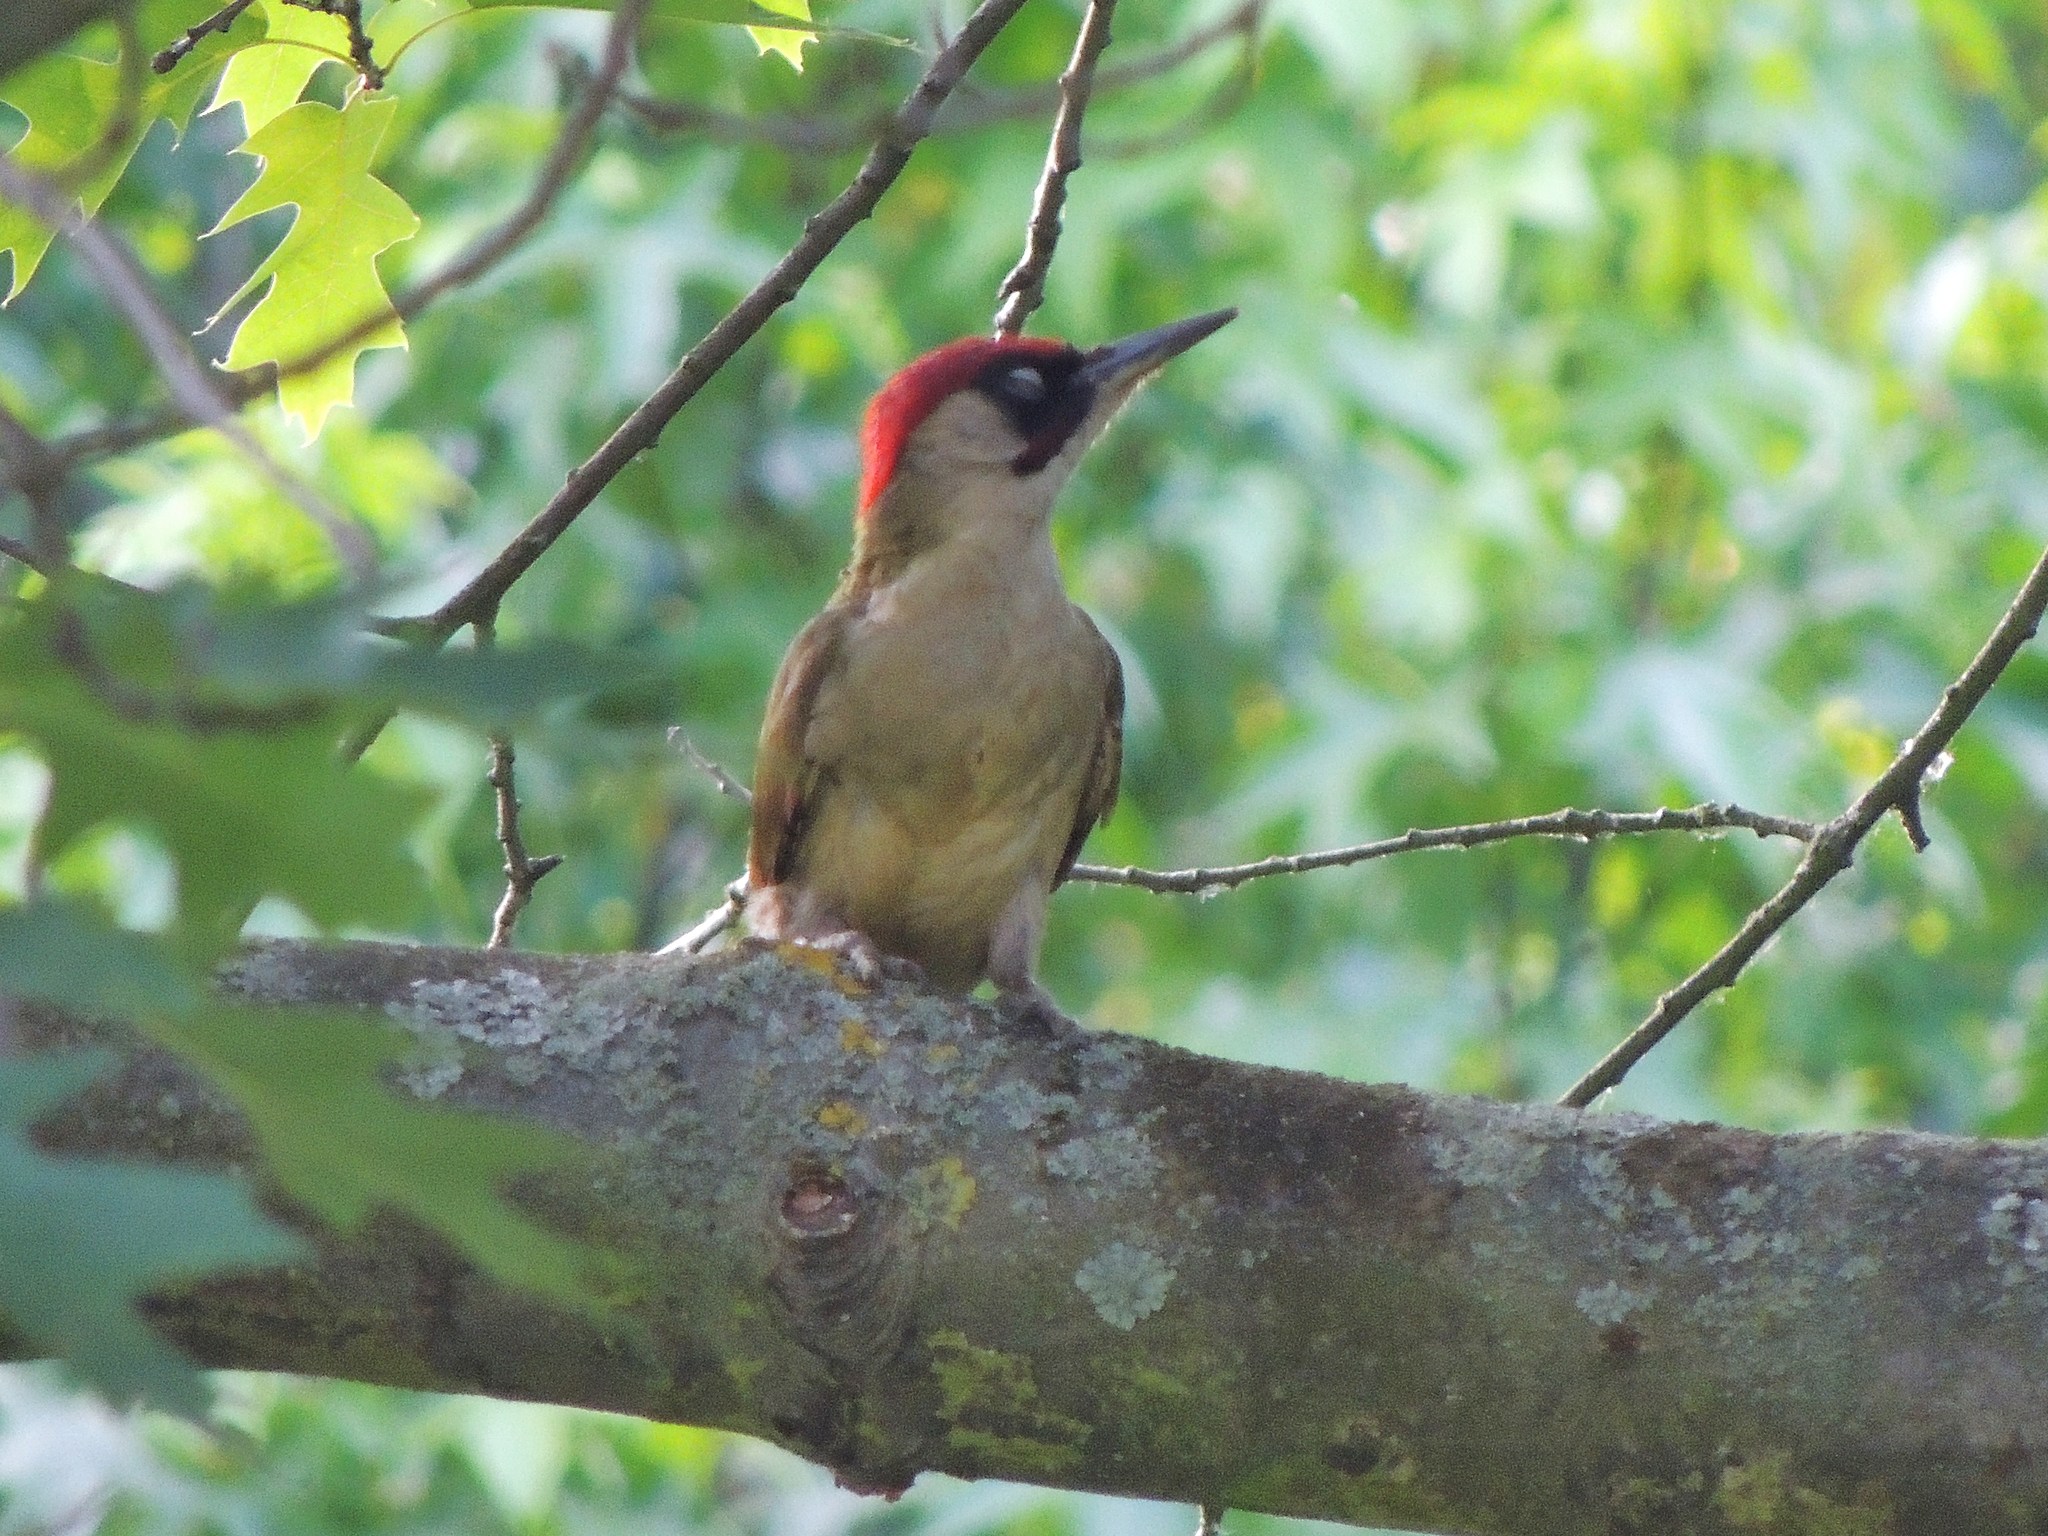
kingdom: Animalia
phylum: Chordata
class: Aves
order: Piciformes
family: Picidae
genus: Picus
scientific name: Picus viridis
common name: European green woodpecker
